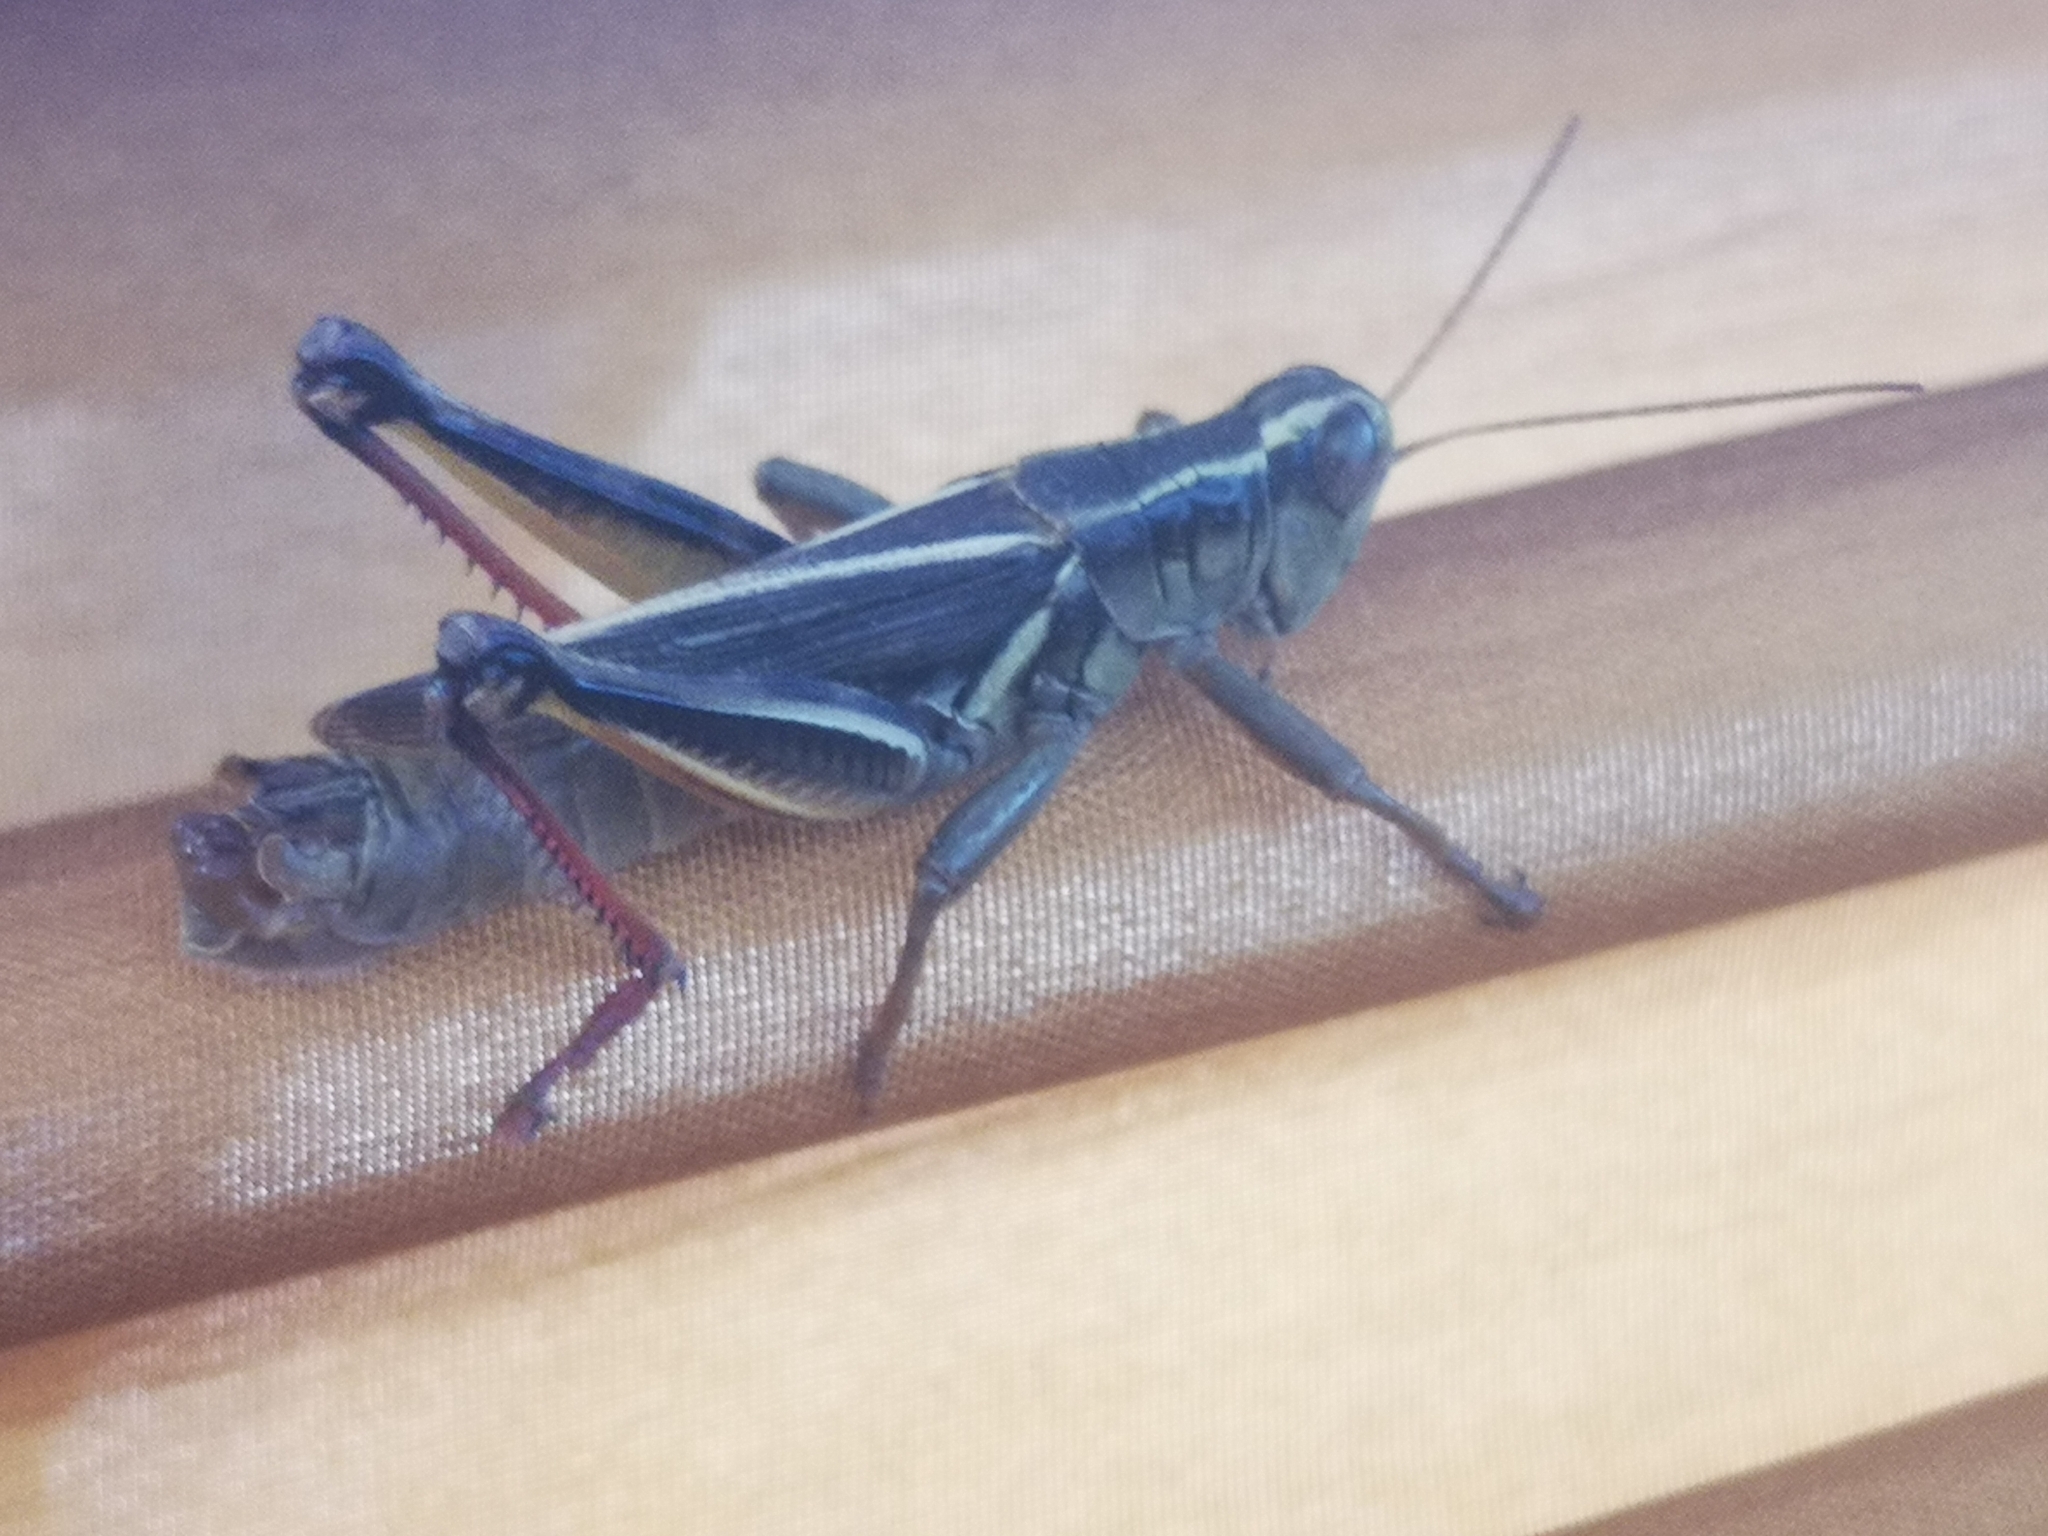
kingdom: Animalia
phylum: Arthropoda
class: Insecta
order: Orthoptera
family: Acrididae
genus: Melanoplus
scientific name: Melanoplus bivittatus
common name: Two-striped grasshopper
